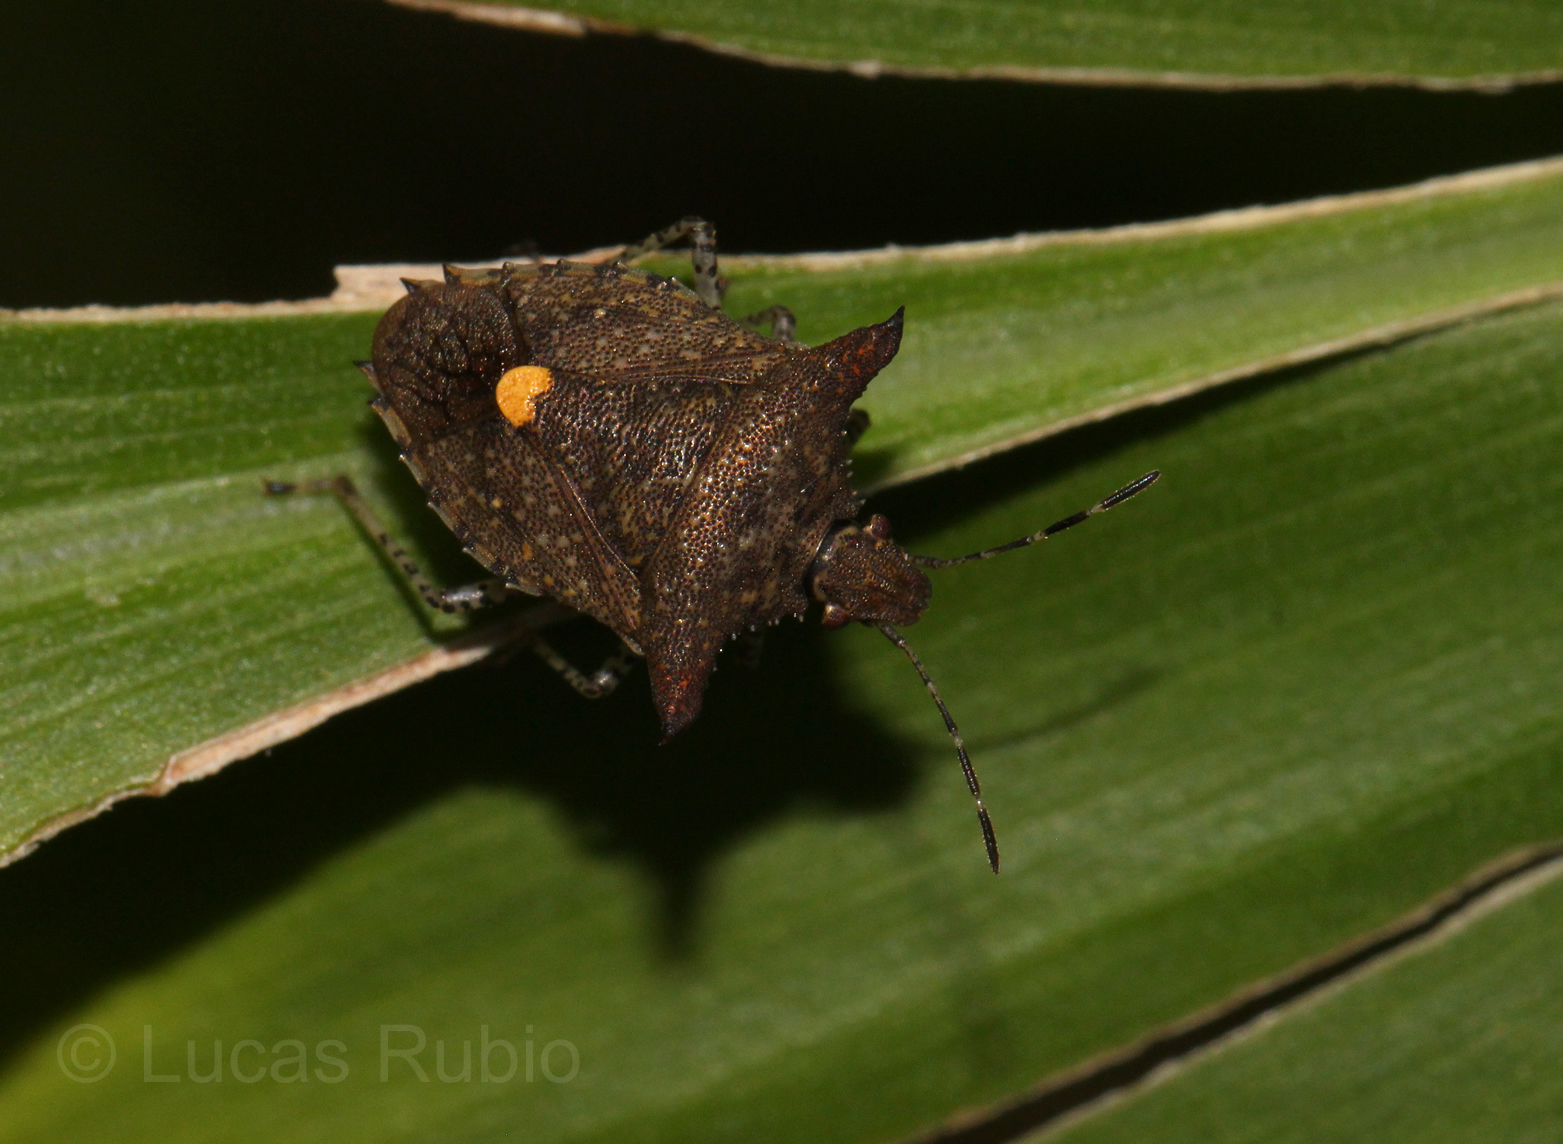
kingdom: Animalia
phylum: Arthropoda
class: Insecta
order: Hemiptera
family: Pentatomidae
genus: Euschistus
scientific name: Euschistus picticornis
